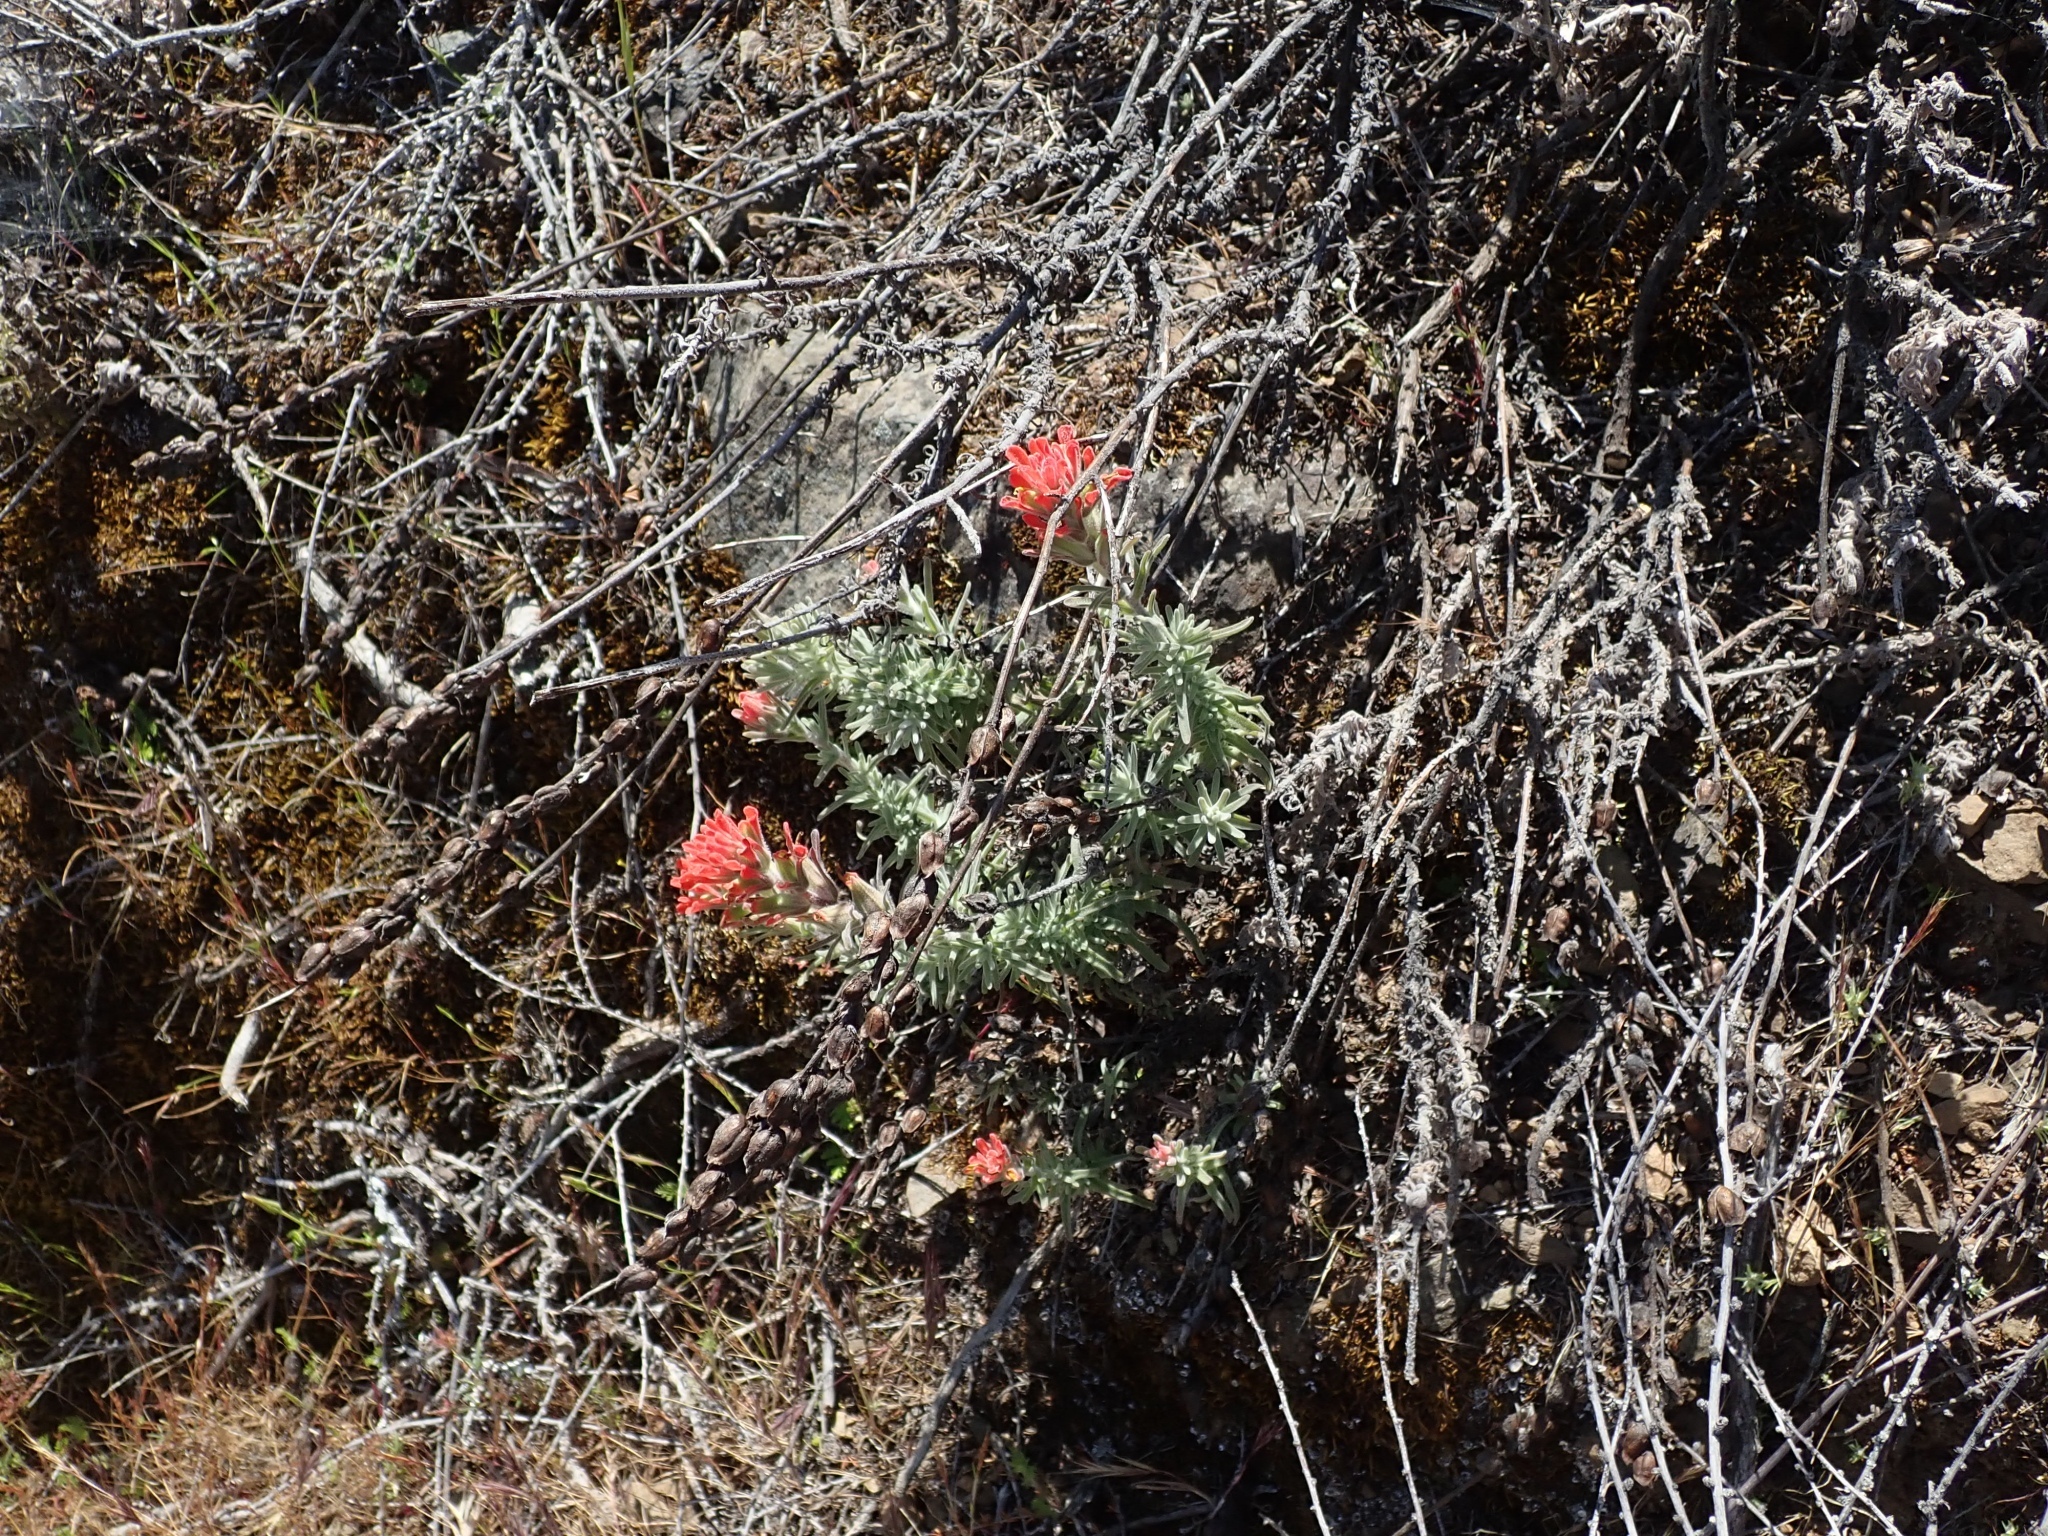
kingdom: Plantae
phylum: Tracheophyta
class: Magnoliopsida
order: Lamiales
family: Orobanchaceae
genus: Castilleja
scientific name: Castilleja foliolosa
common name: Woolly indian paintbrush
